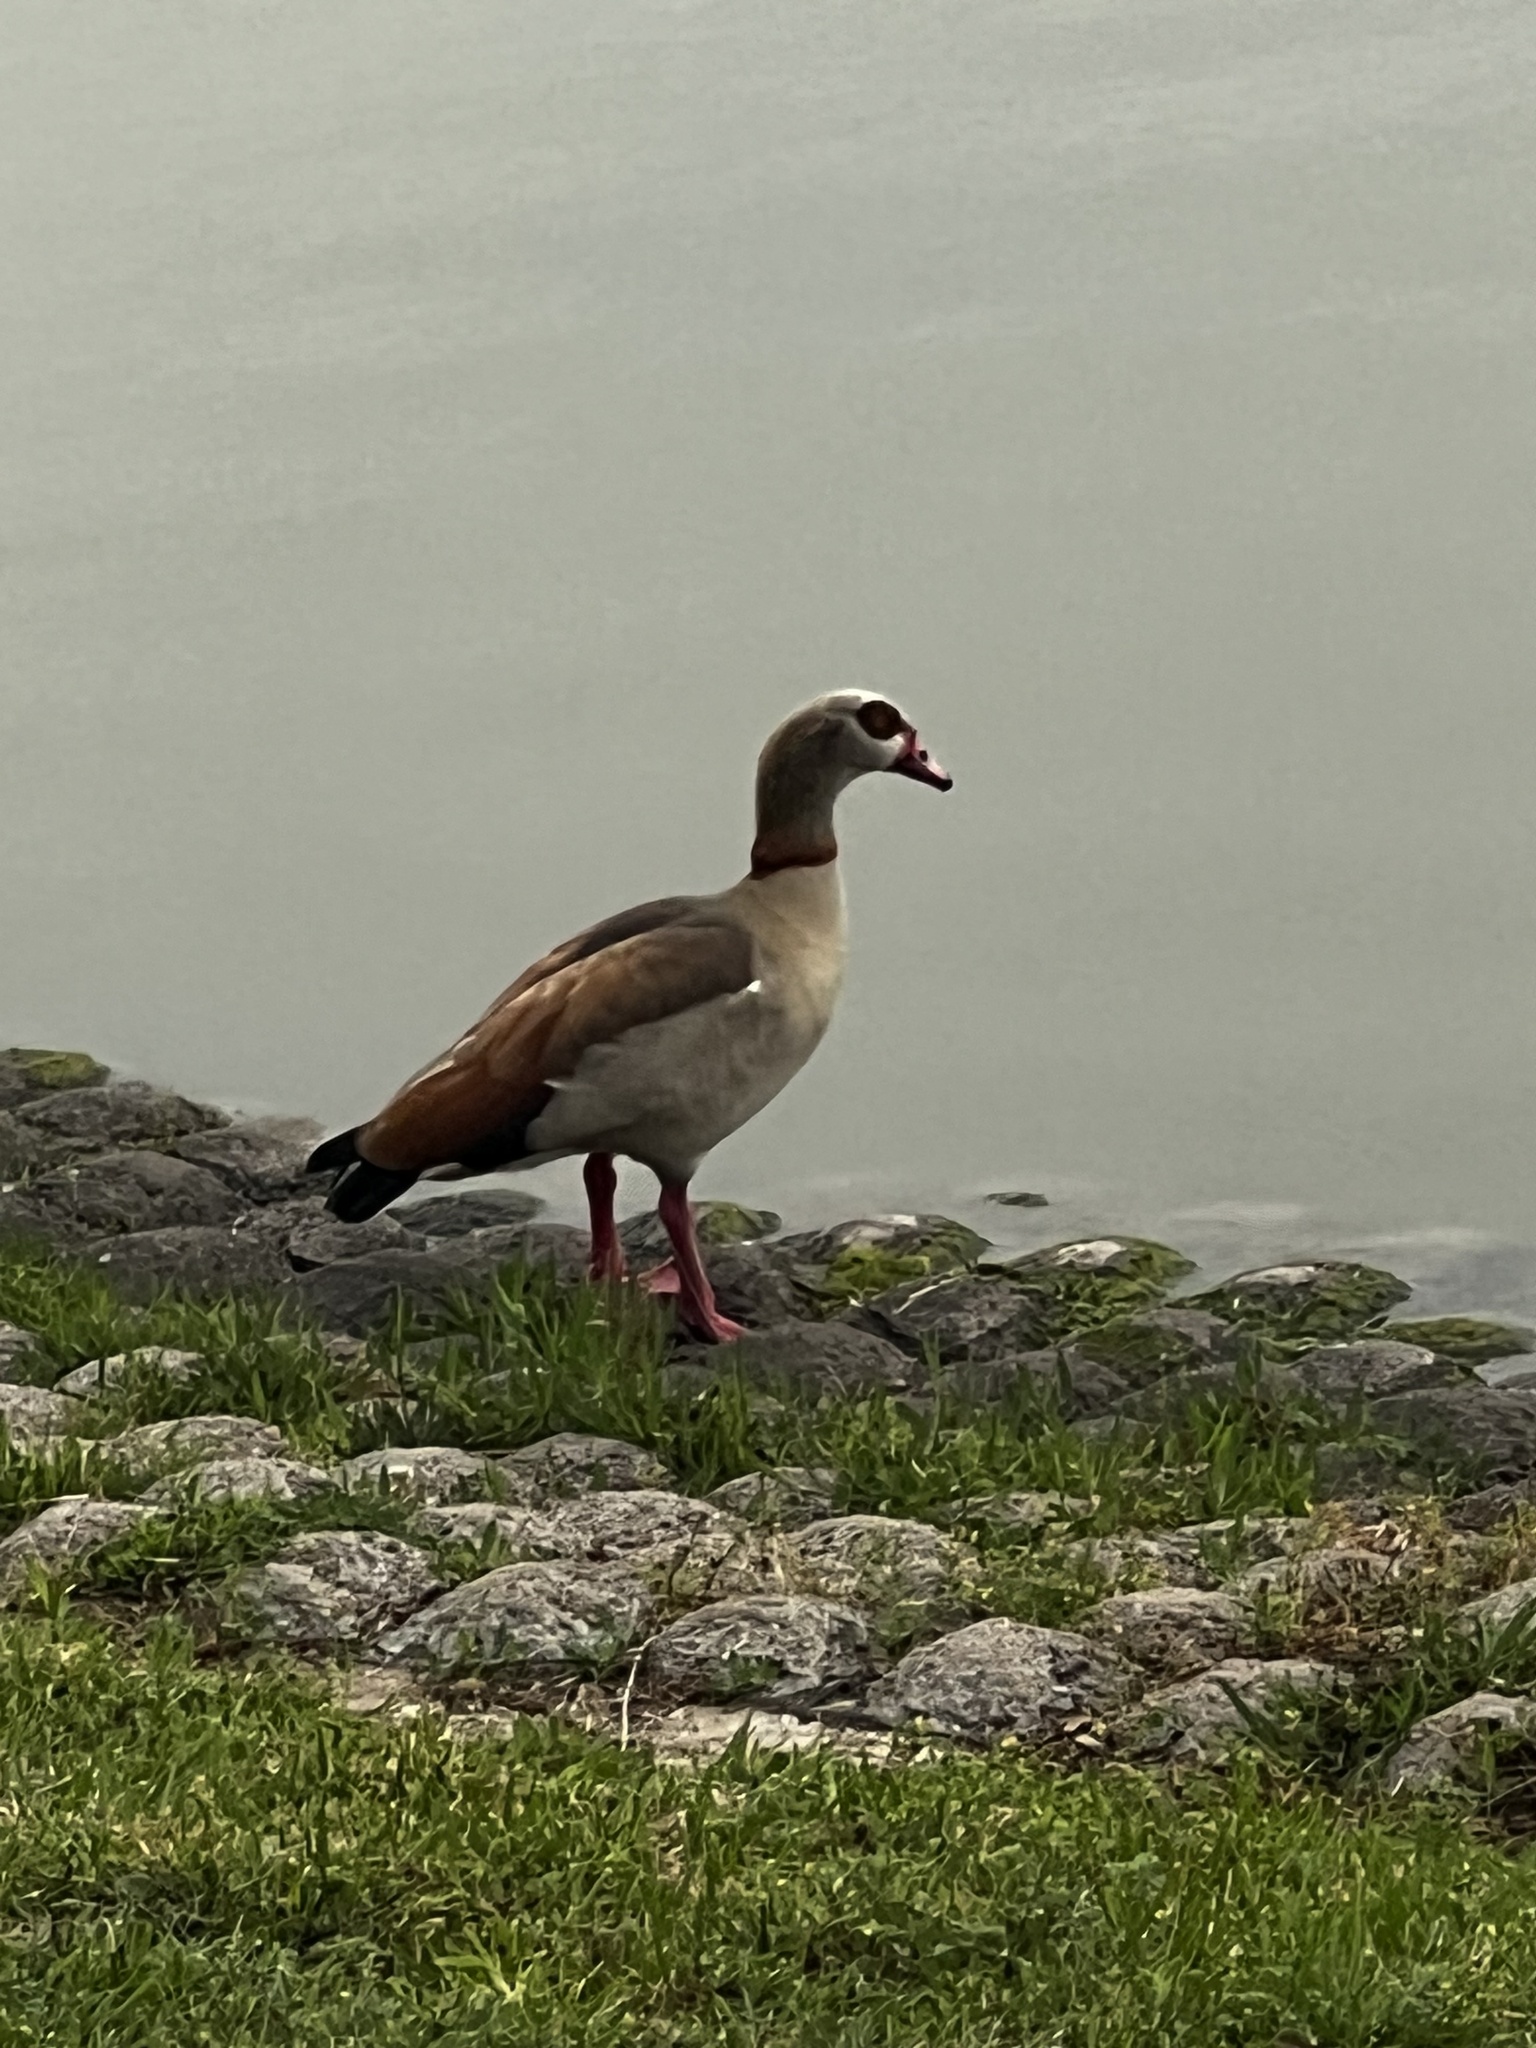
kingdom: Animalia
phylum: Chordata
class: Aves
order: Anseriformes
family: Anatidae
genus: Alopochen
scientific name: Alopochen aegyptiaca
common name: Egyptian goose
